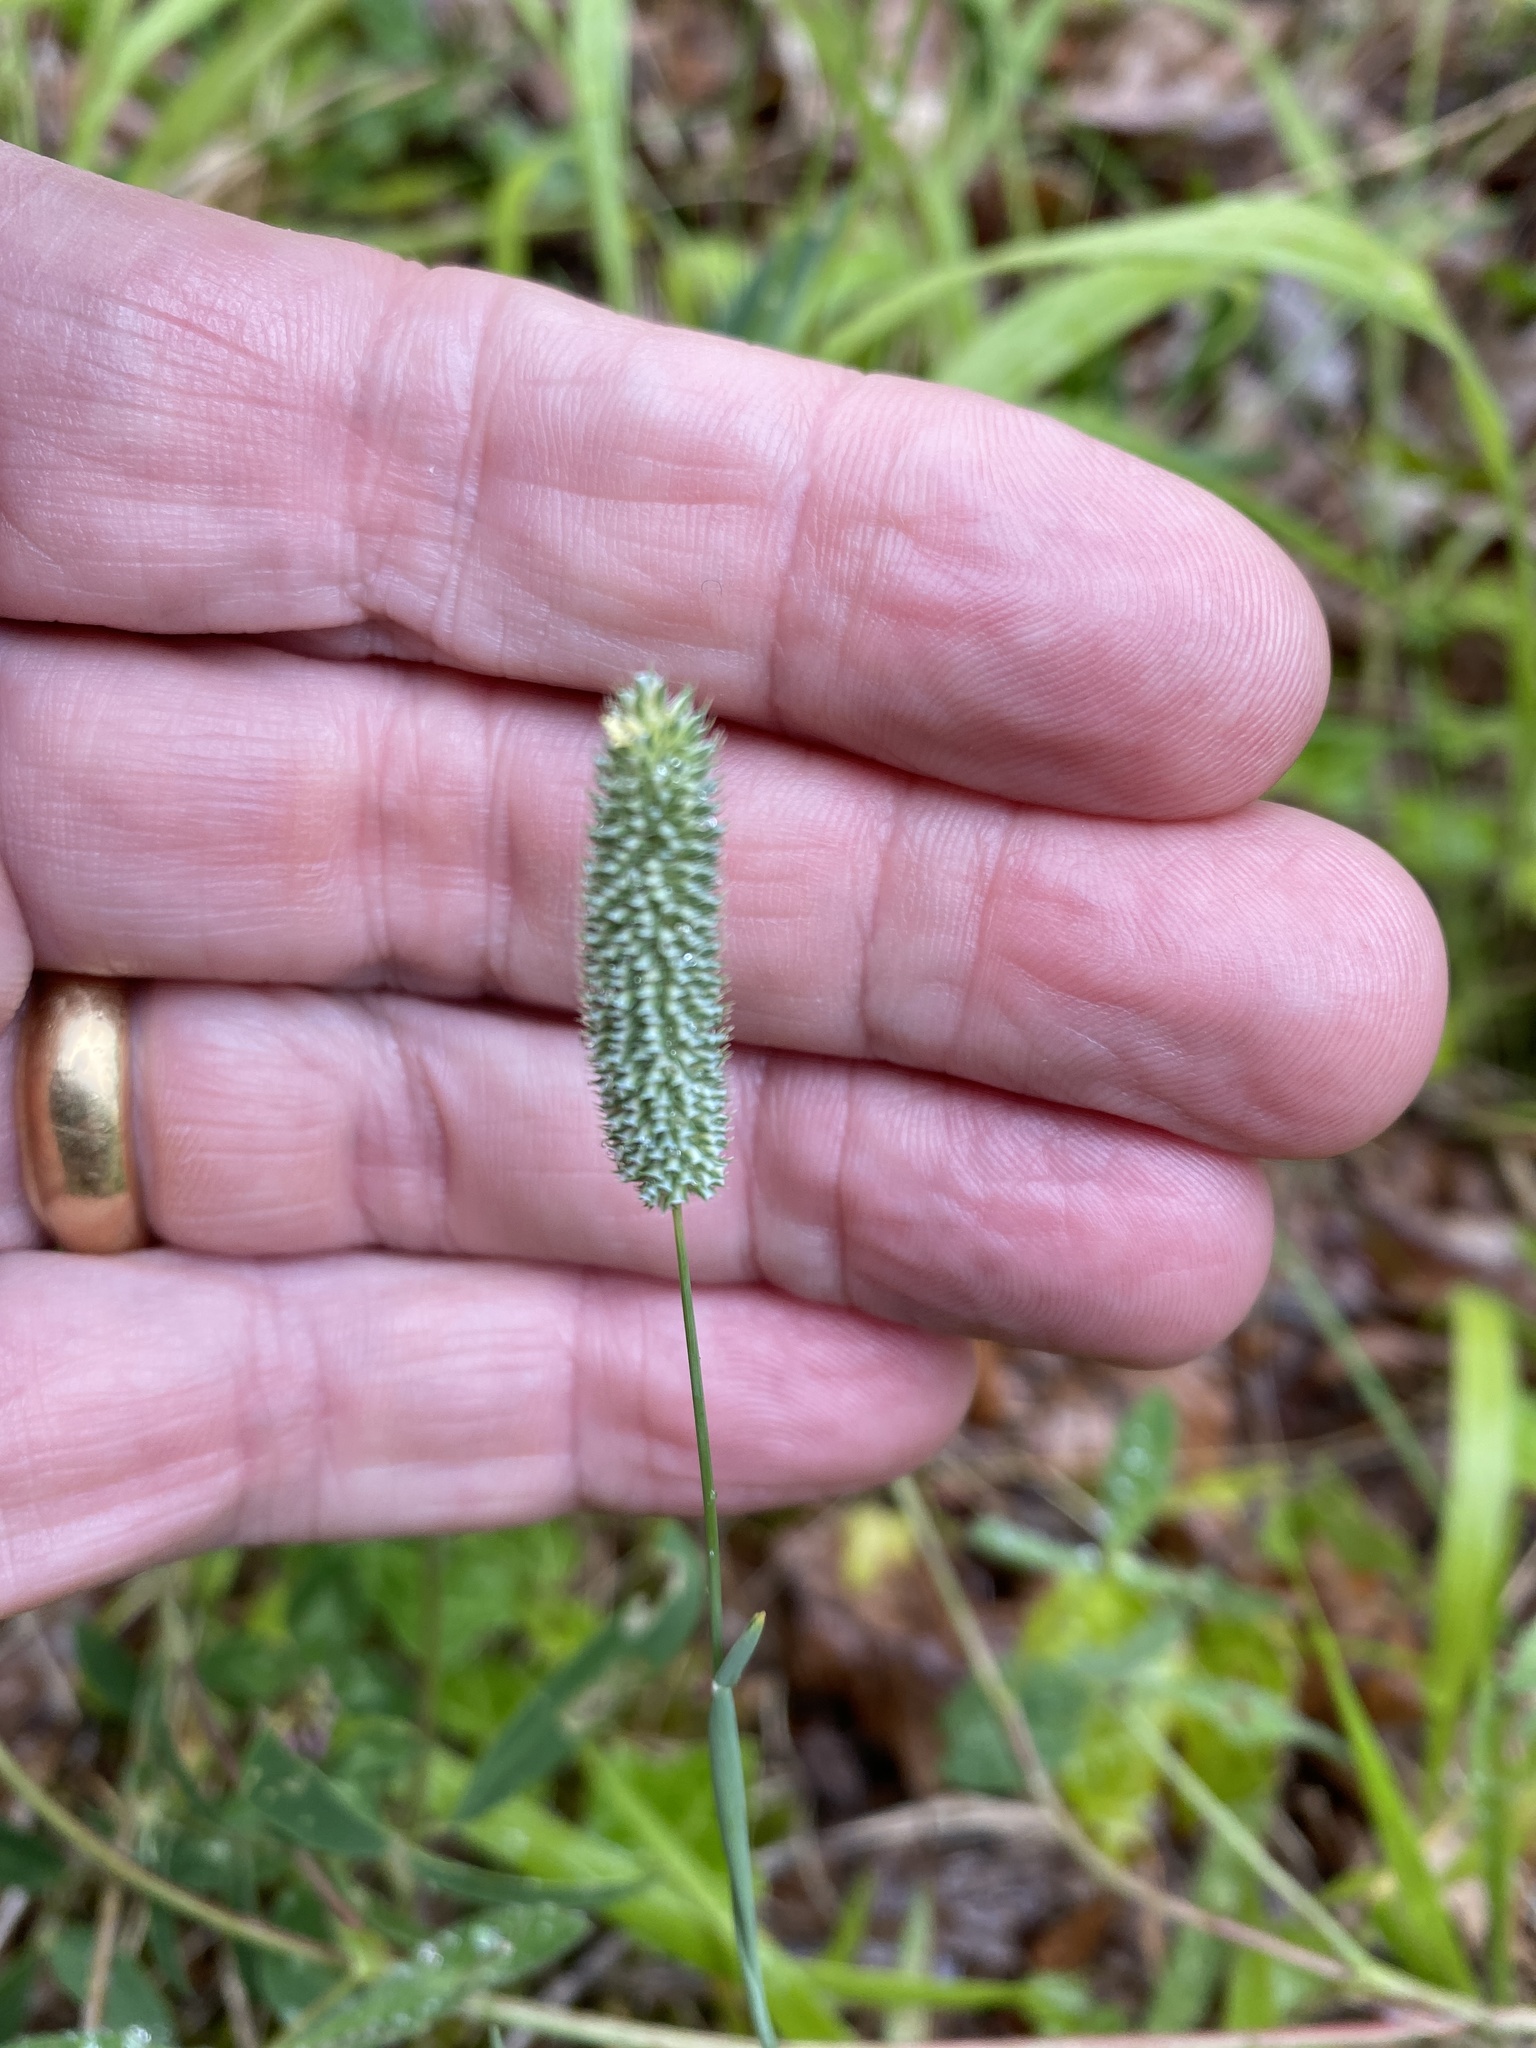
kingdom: Plantae
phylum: Tracheophyta
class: Liliopsida
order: Poales
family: Poaceae
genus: Phleum
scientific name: Phleum bertolonii
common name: Smaller cat's-tail
